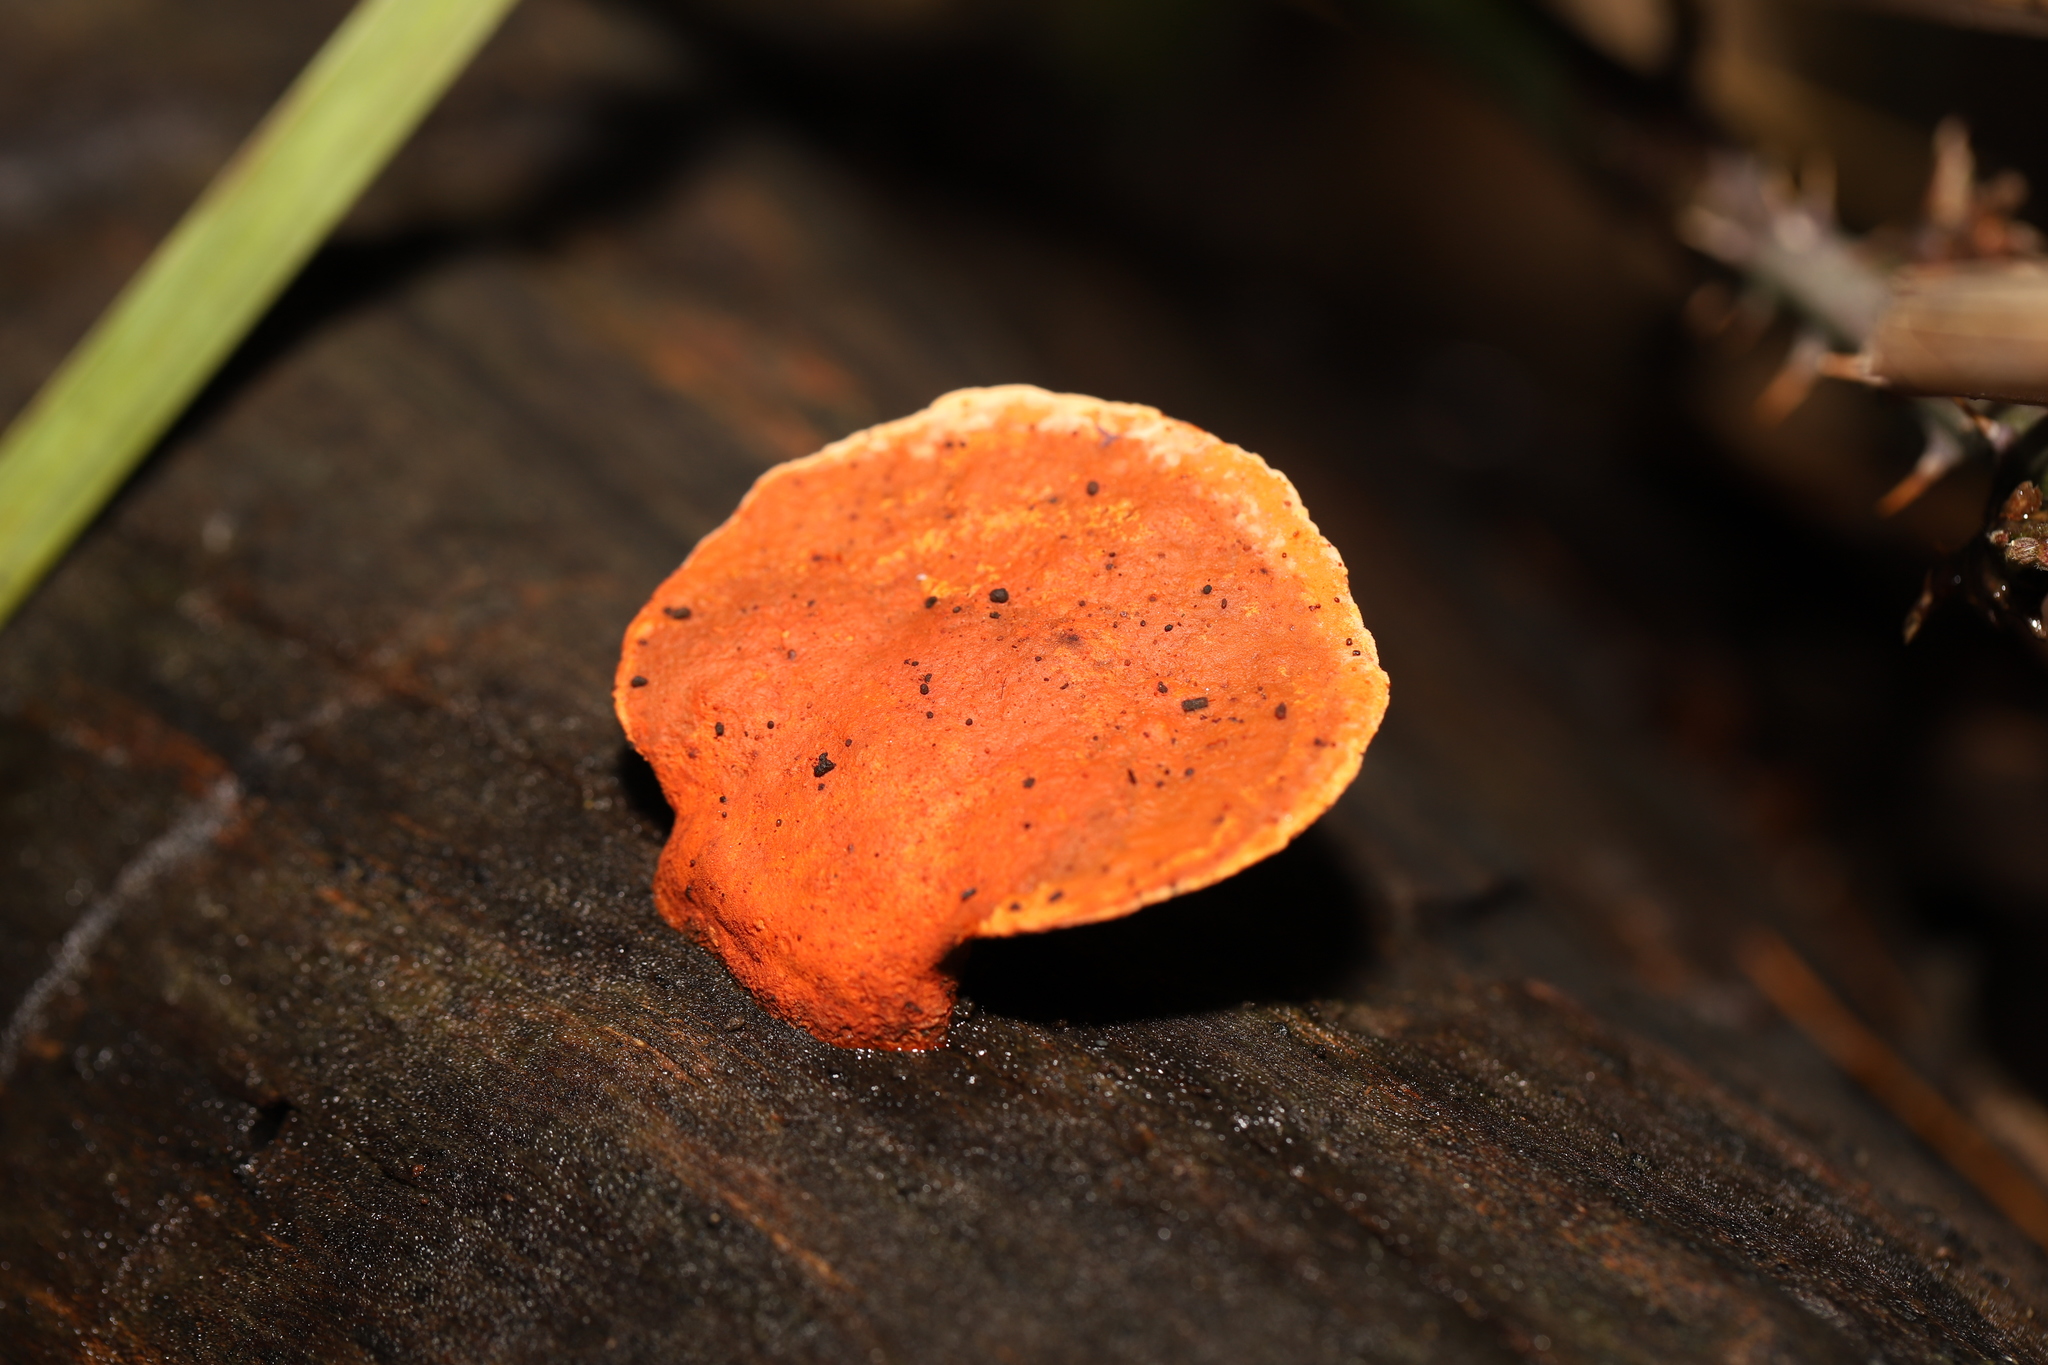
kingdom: Fungi
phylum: Basidiomycota
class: Agaricomycetes
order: Polyporales
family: Polyporaceae
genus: Trametes
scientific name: Trametes coccinea
